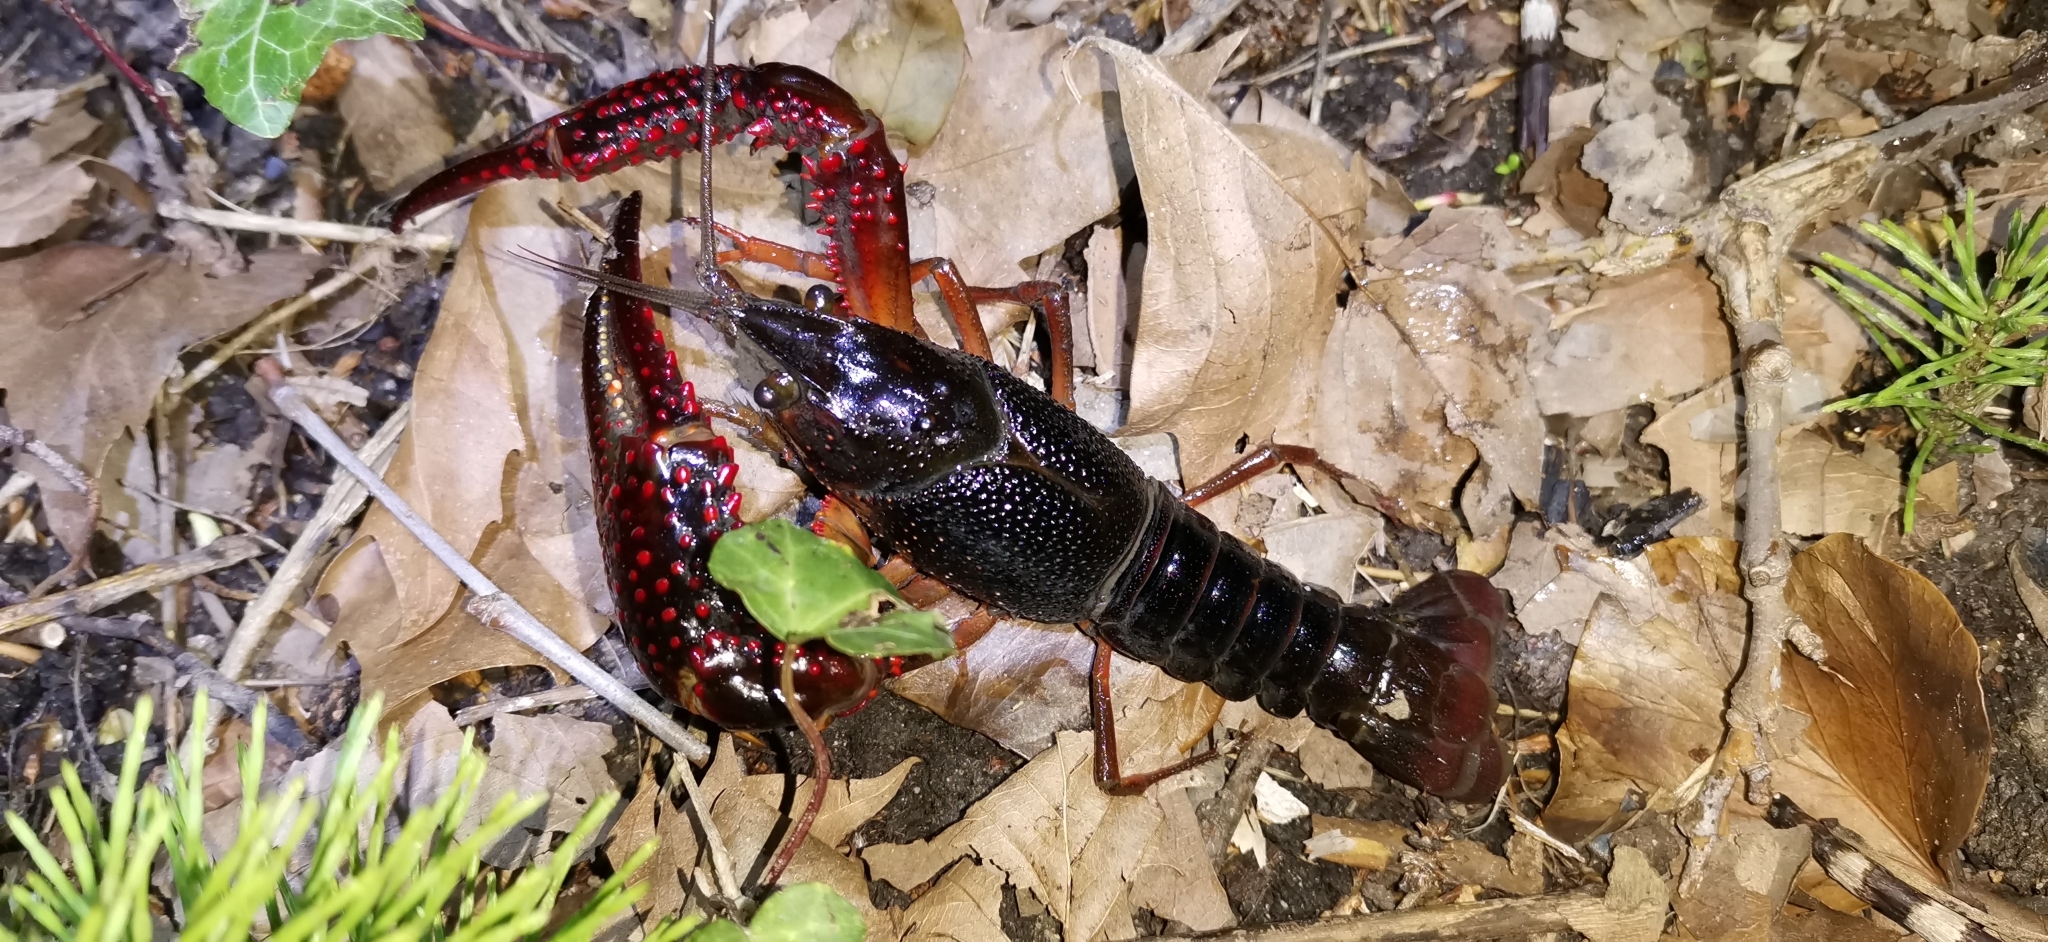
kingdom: Animalia
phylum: Arthropoda
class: Malacostraca
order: Decapoda
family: Cambaridae
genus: Procambarus
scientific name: Procambarus clarkii
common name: Red swamp crayfish
